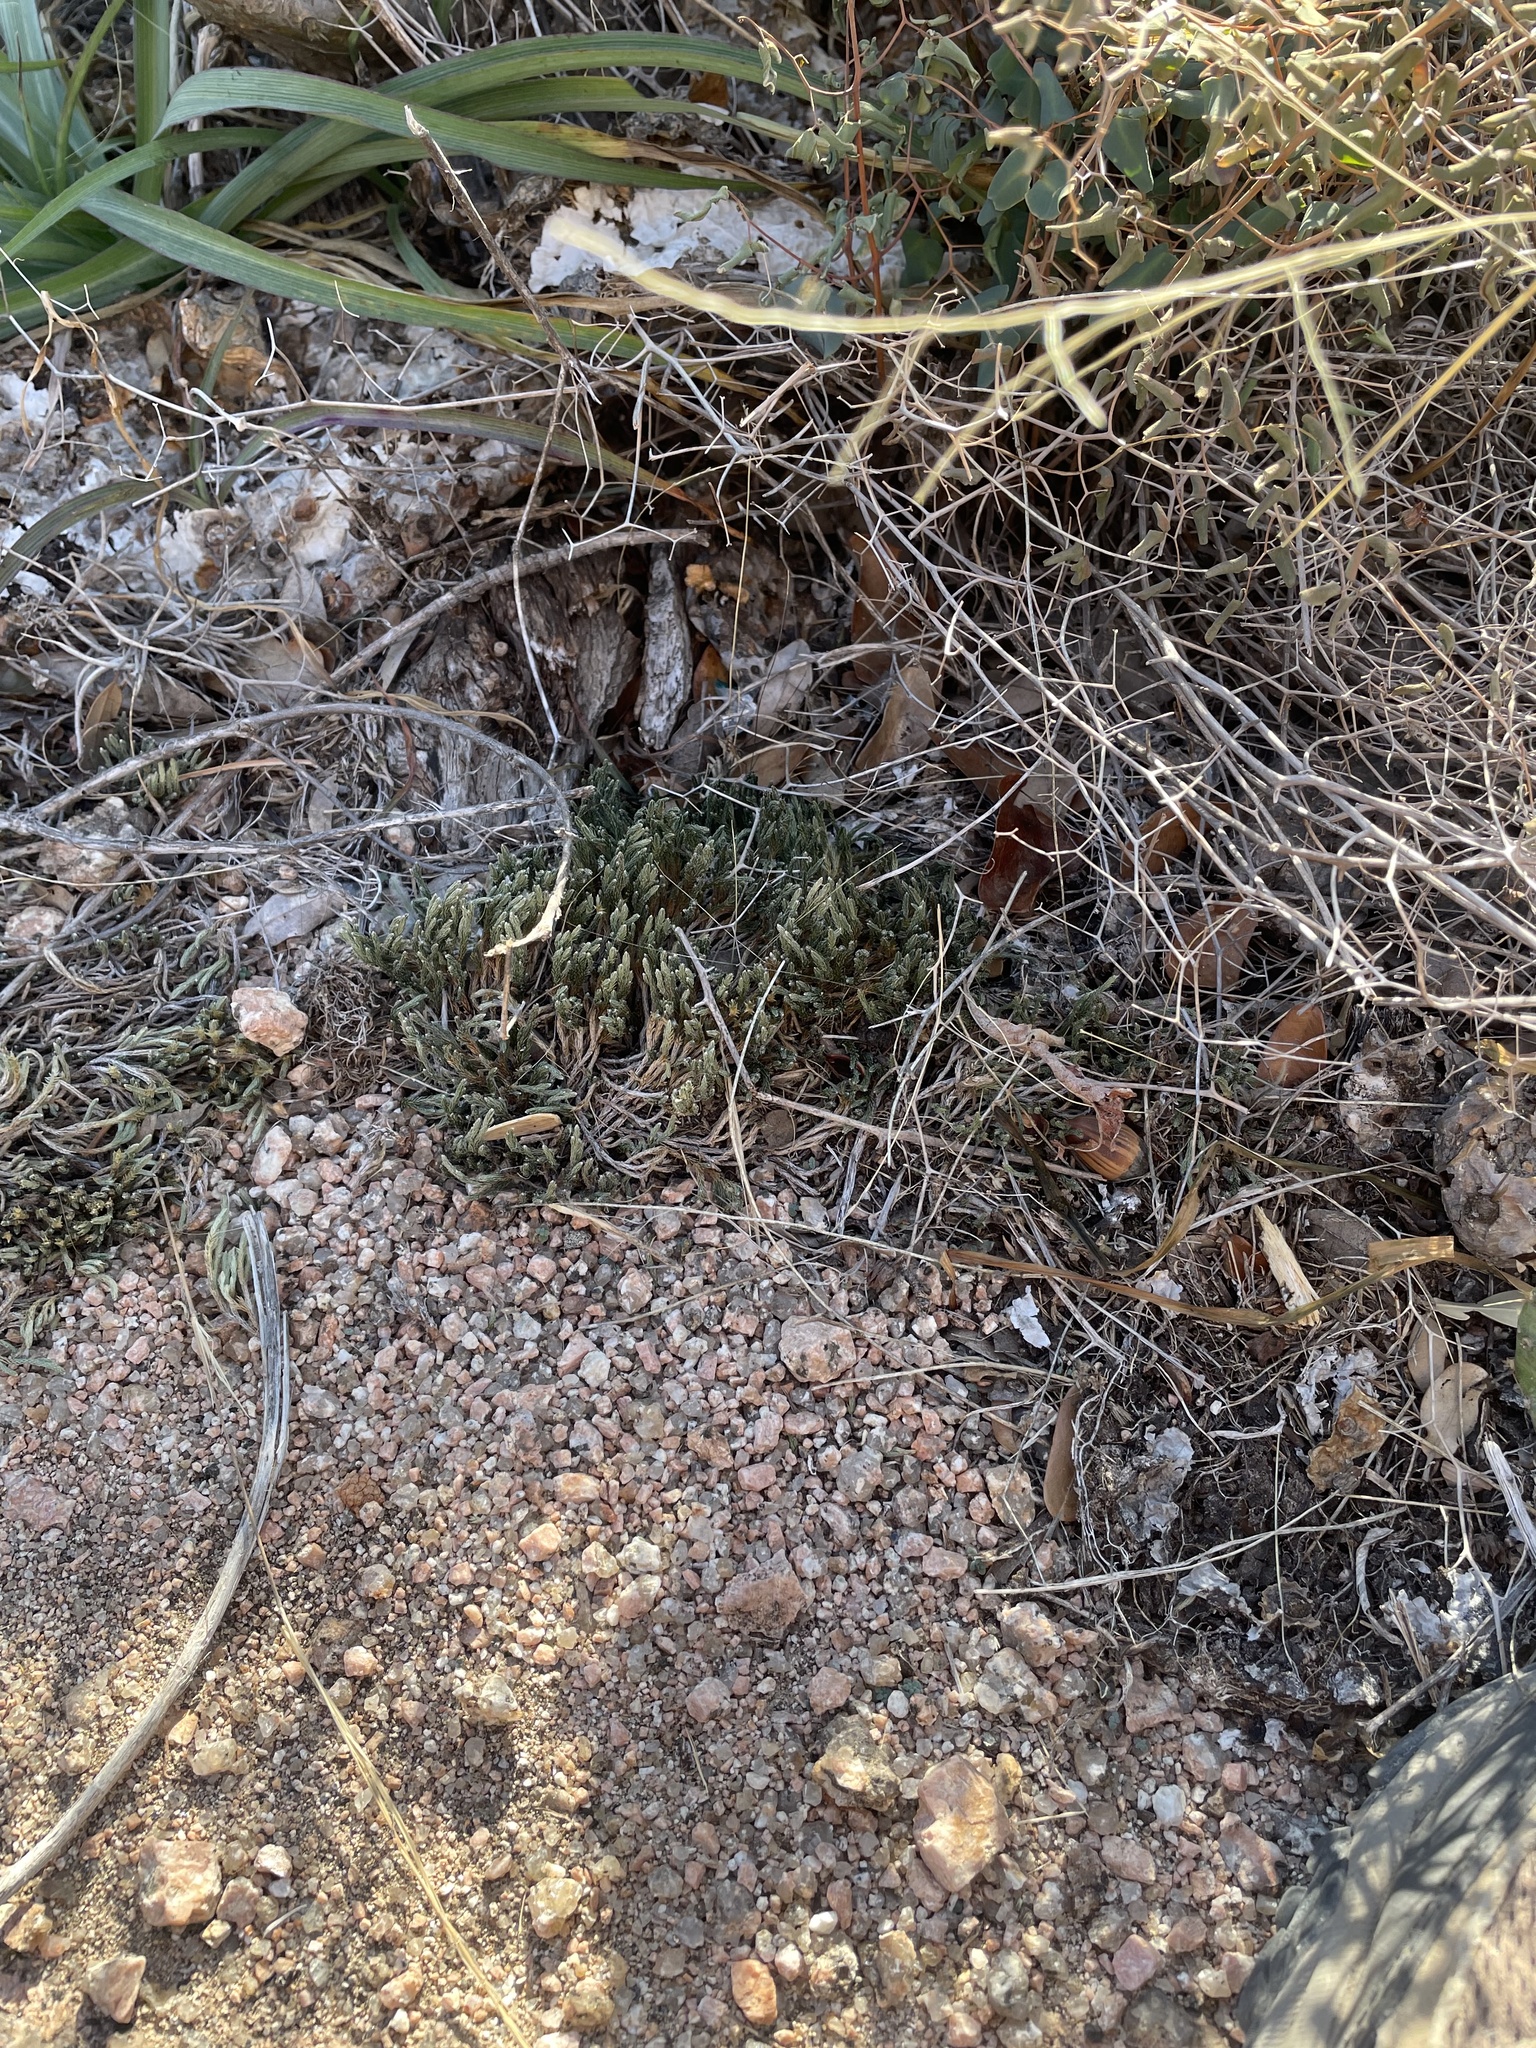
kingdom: Plantae
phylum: Tracheophyta
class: Lycopodiopsida
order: Selaginellales
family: Selaginellaceae
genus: Selaginella
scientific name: Selaginella corallina
